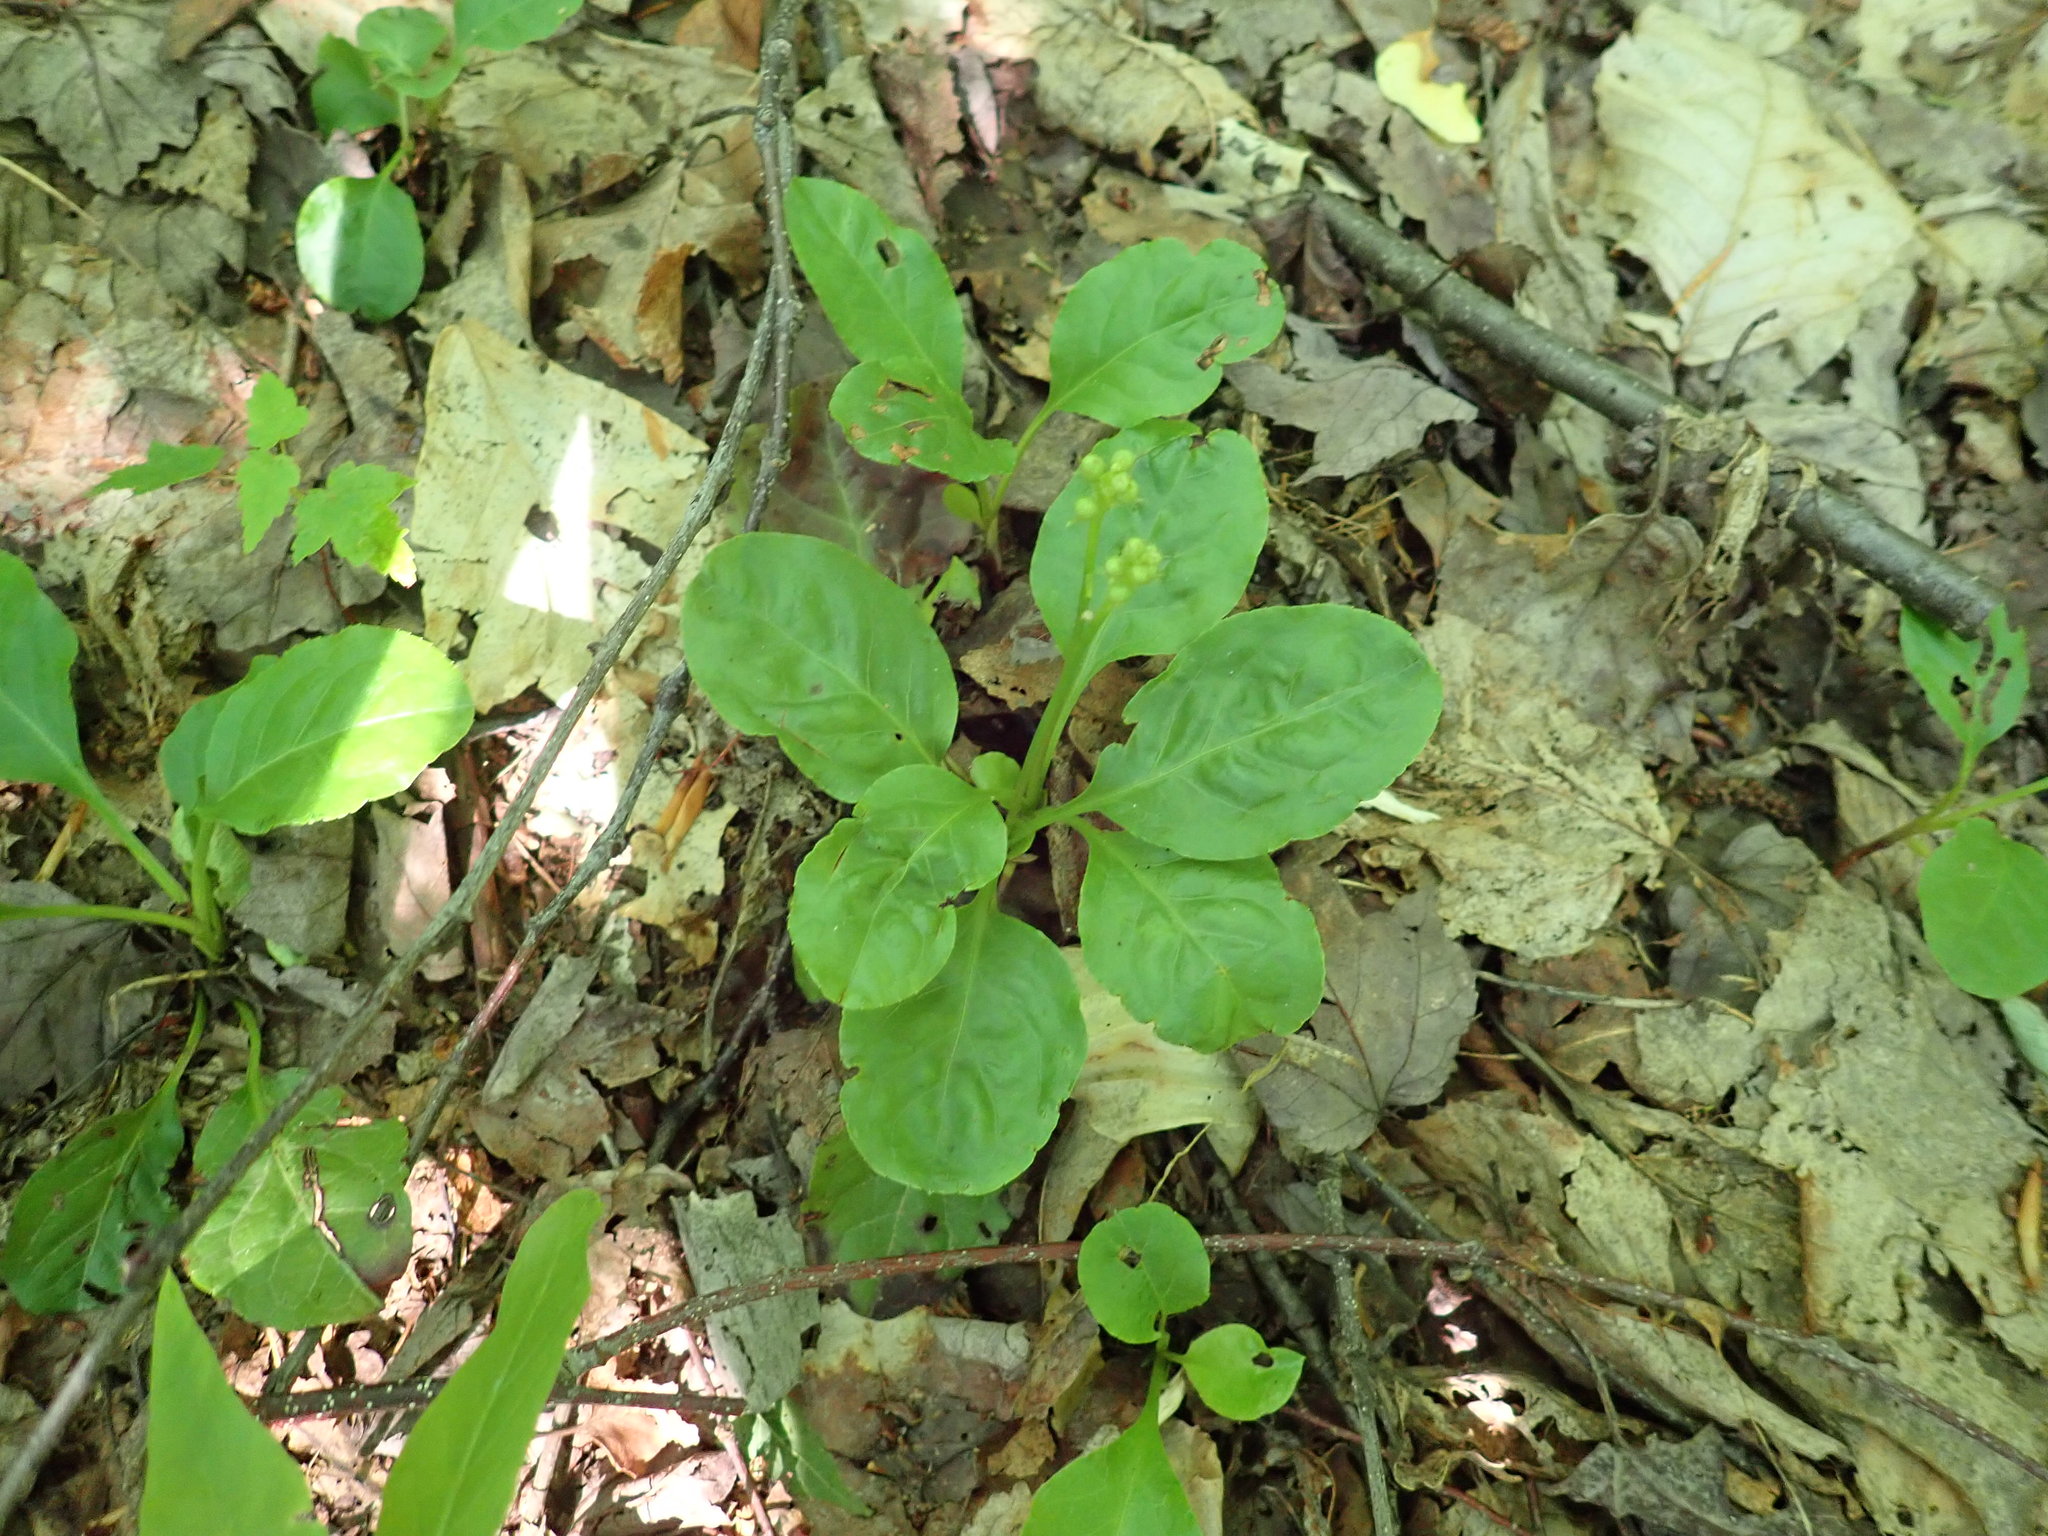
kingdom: Plantae
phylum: Tracheophyta
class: Magnoliopsida
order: Ericales
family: Ericaceae
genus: Pyrola
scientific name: Pyrola elliptica
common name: Shinleaf
